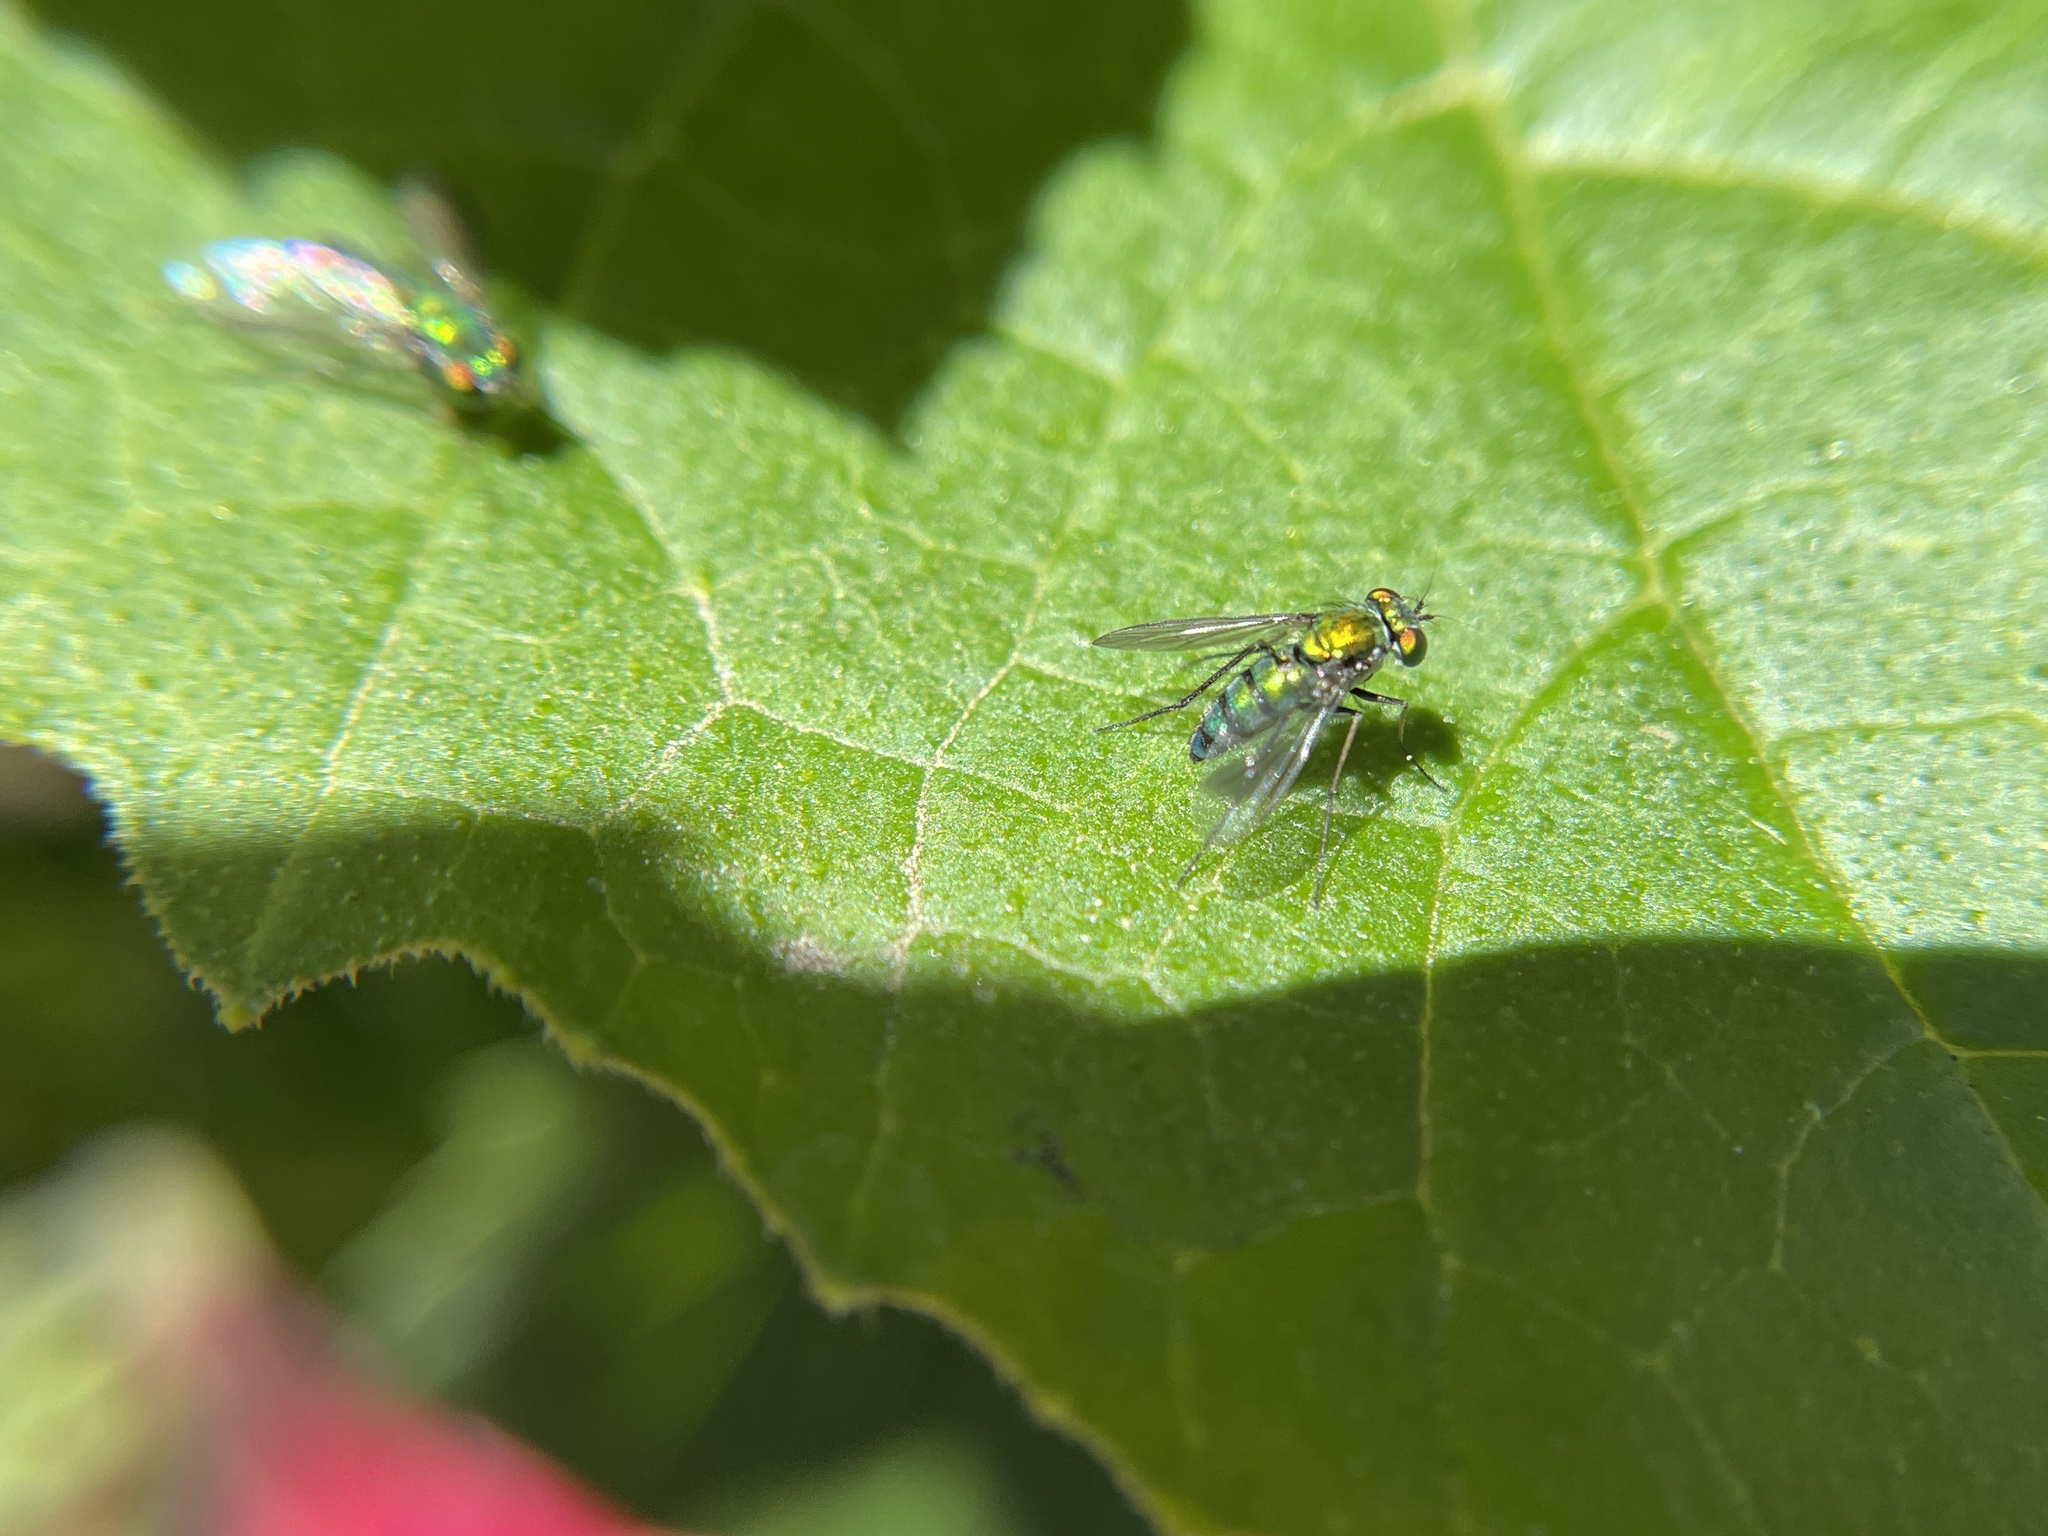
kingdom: Animalia
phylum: Arthropoda
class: Insecta
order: Diptera
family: Dolichopodidae
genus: Condylostylus
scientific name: Condylostylus longicornis
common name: Long-legged fly
